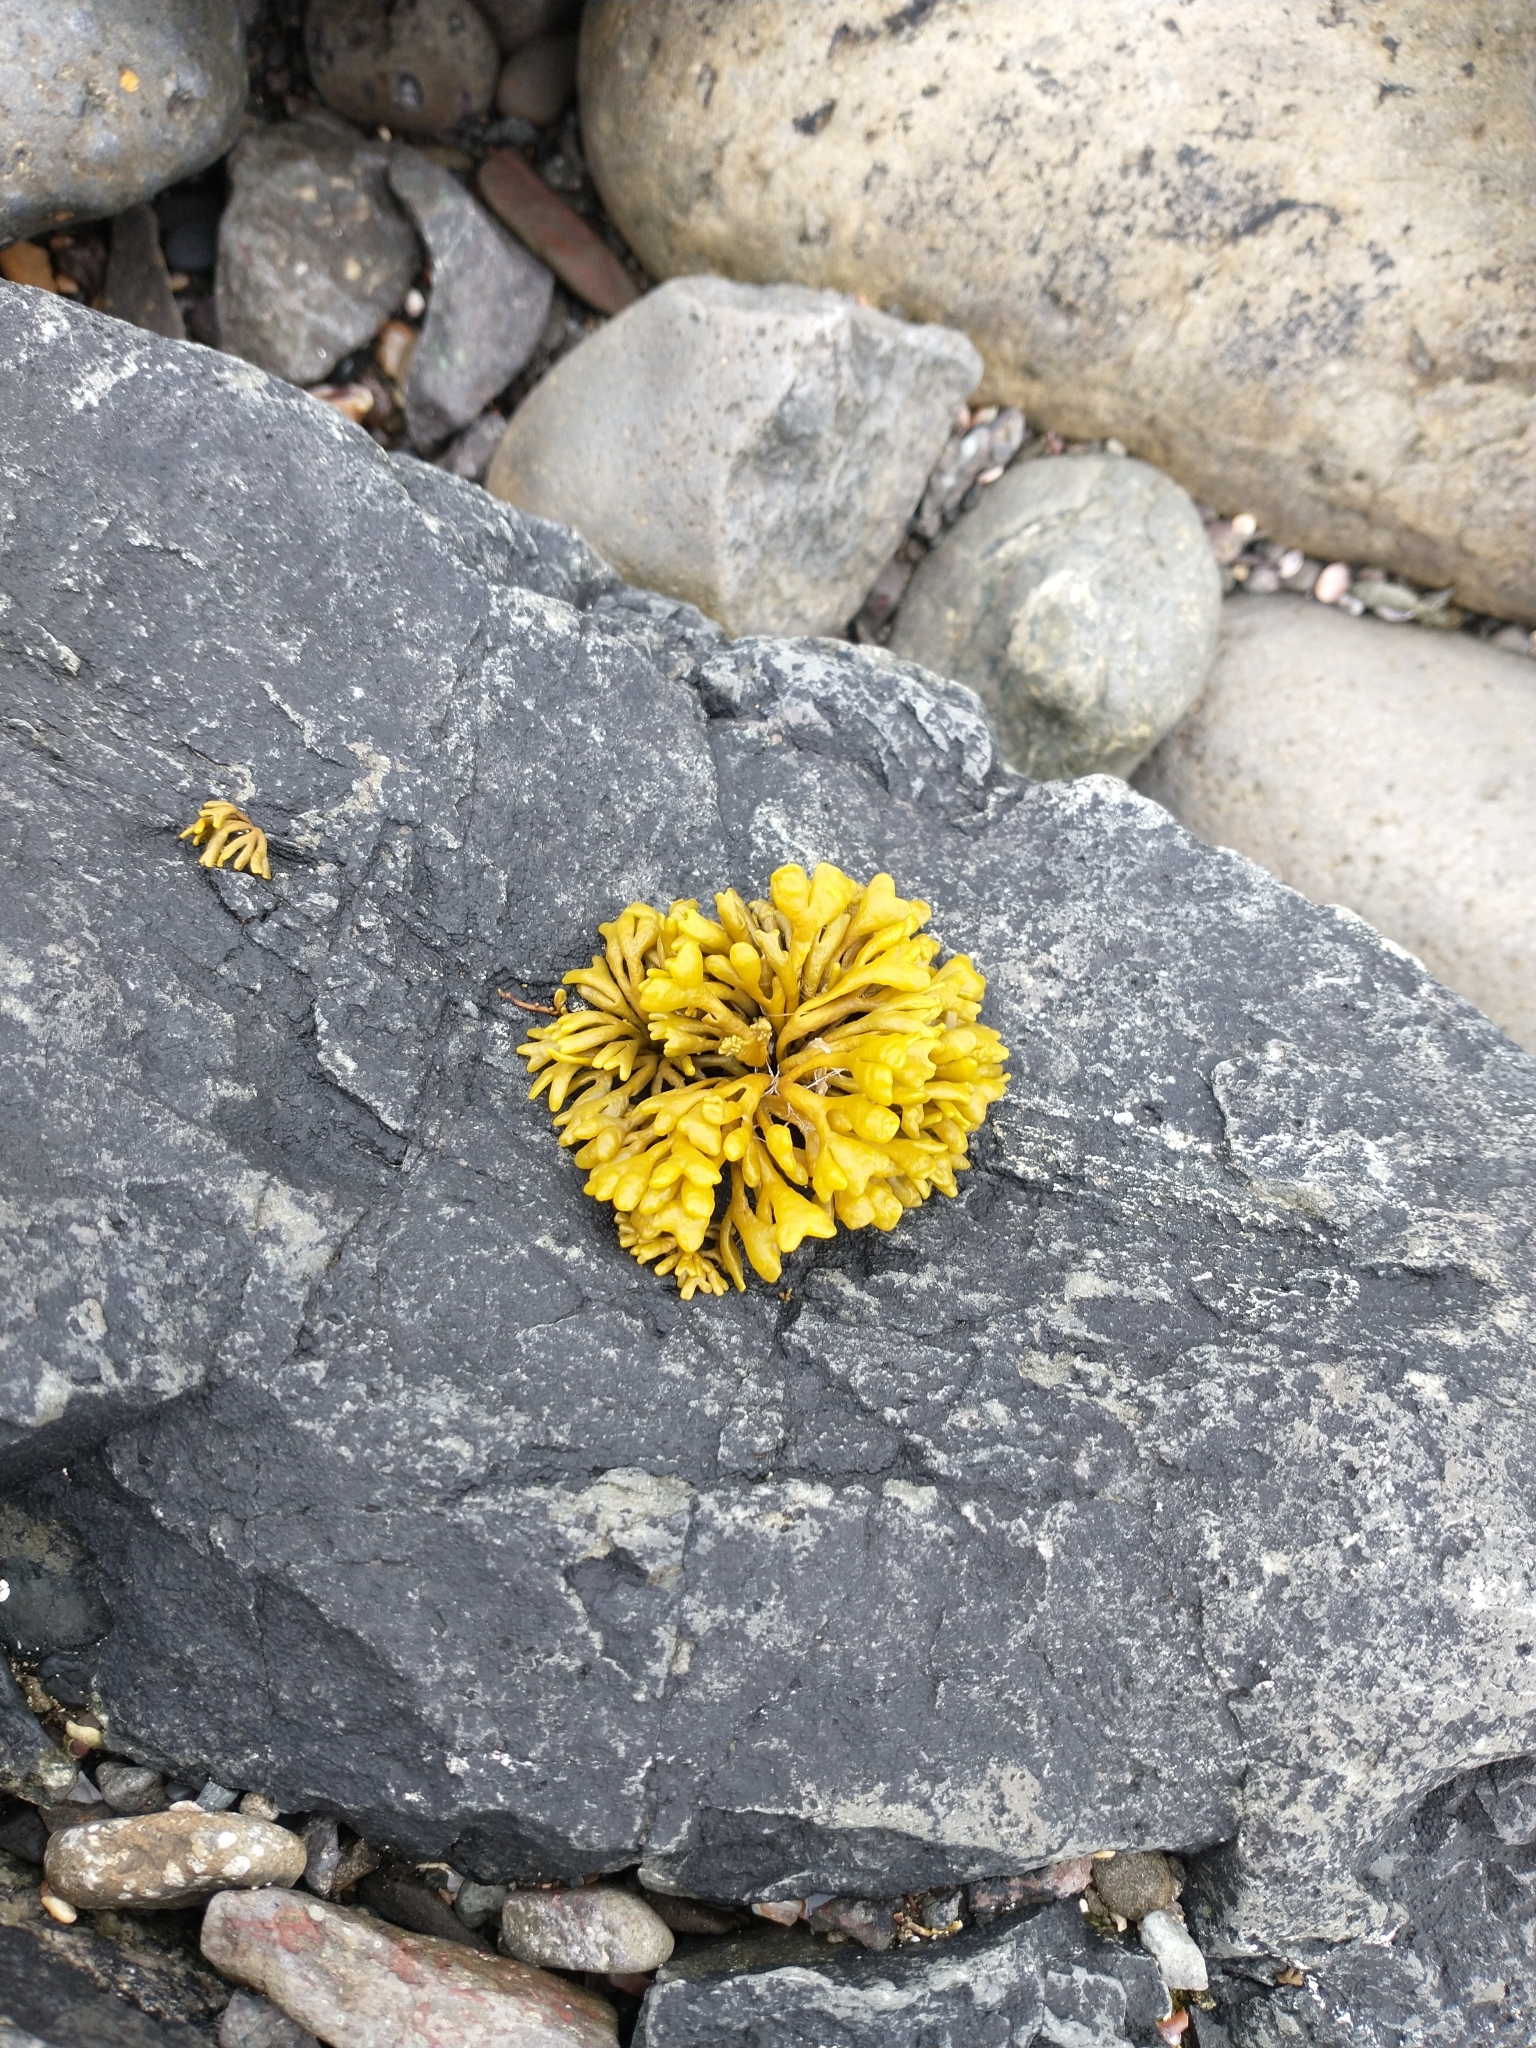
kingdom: Chromista
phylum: Ochrophyta
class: Phaeophyceae
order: Fucales
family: Fucaceae
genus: Pelvetia
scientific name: Pelvetia canaliculata
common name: Channelled wrack
